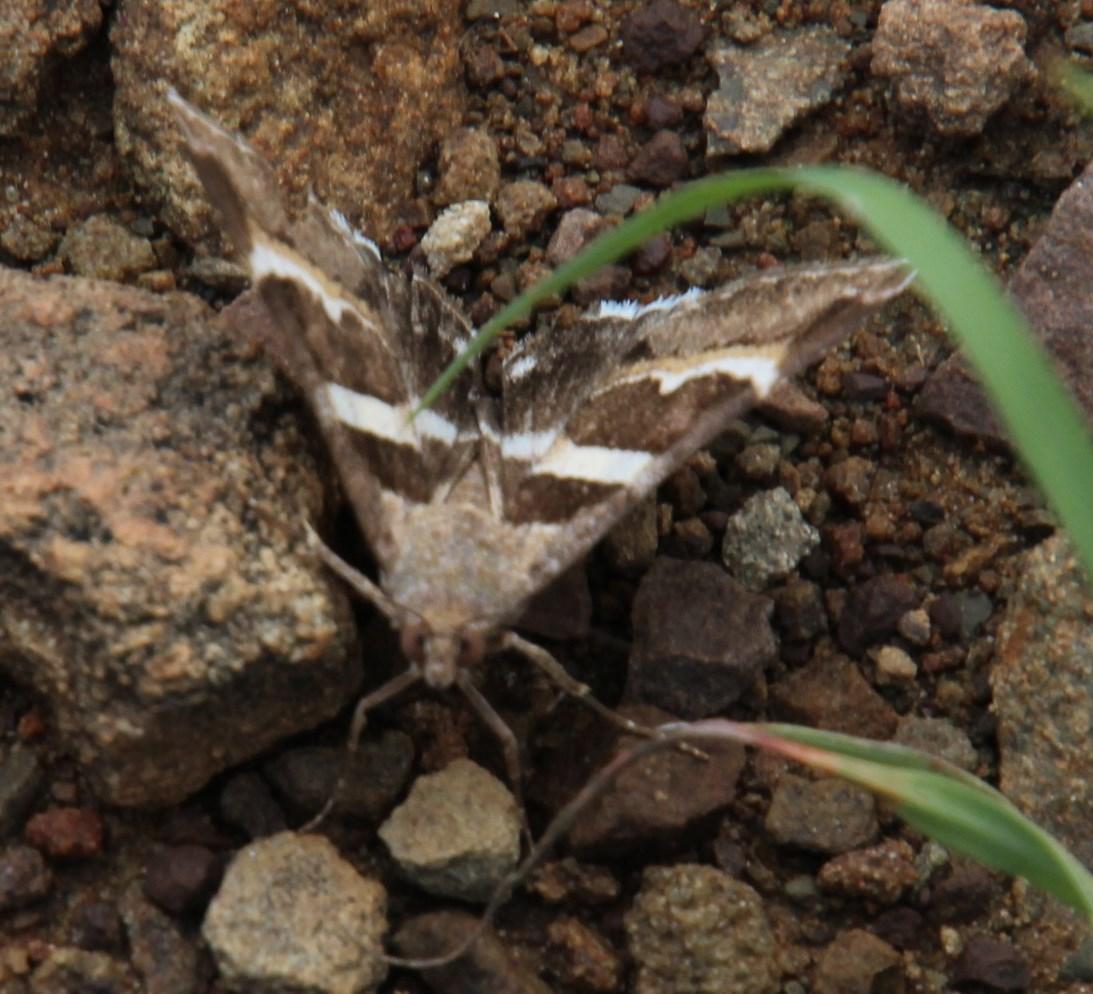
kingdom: Animalia
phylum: Arthropoda
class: Insecta
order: Lepidoptera
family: Erebidae
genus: Grammodes
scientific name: Grammodes stolida
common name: Geometrician
